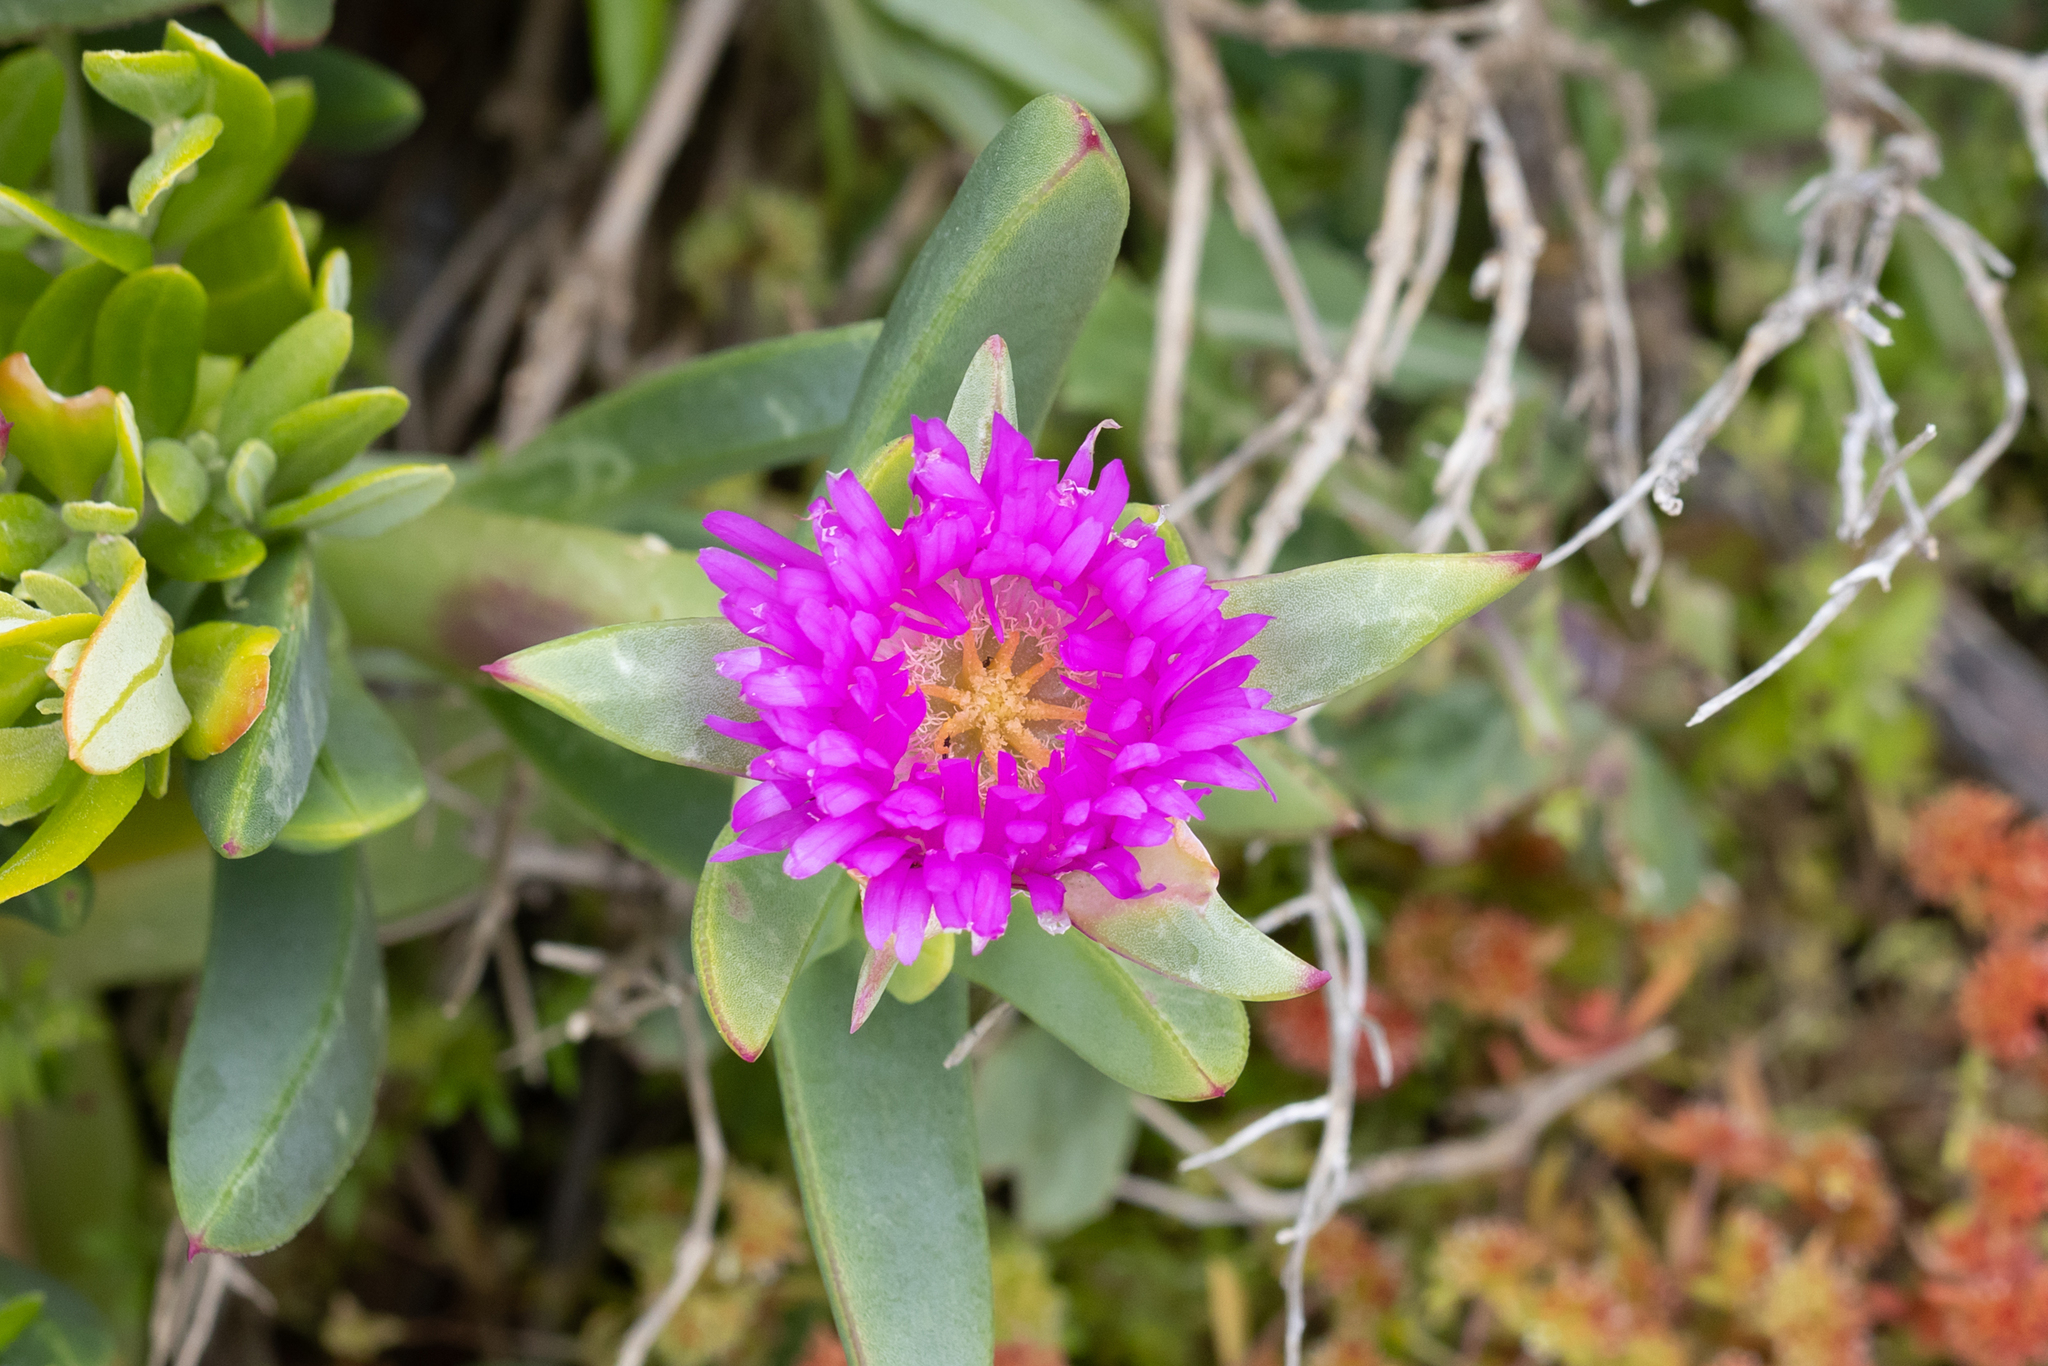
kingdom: Plantae
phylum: Tracheophyta
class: Magnoliopsida
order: Caryophyllales
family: Aizoaceae
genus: Carpobrotus
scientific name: Carpobrotus virescens
